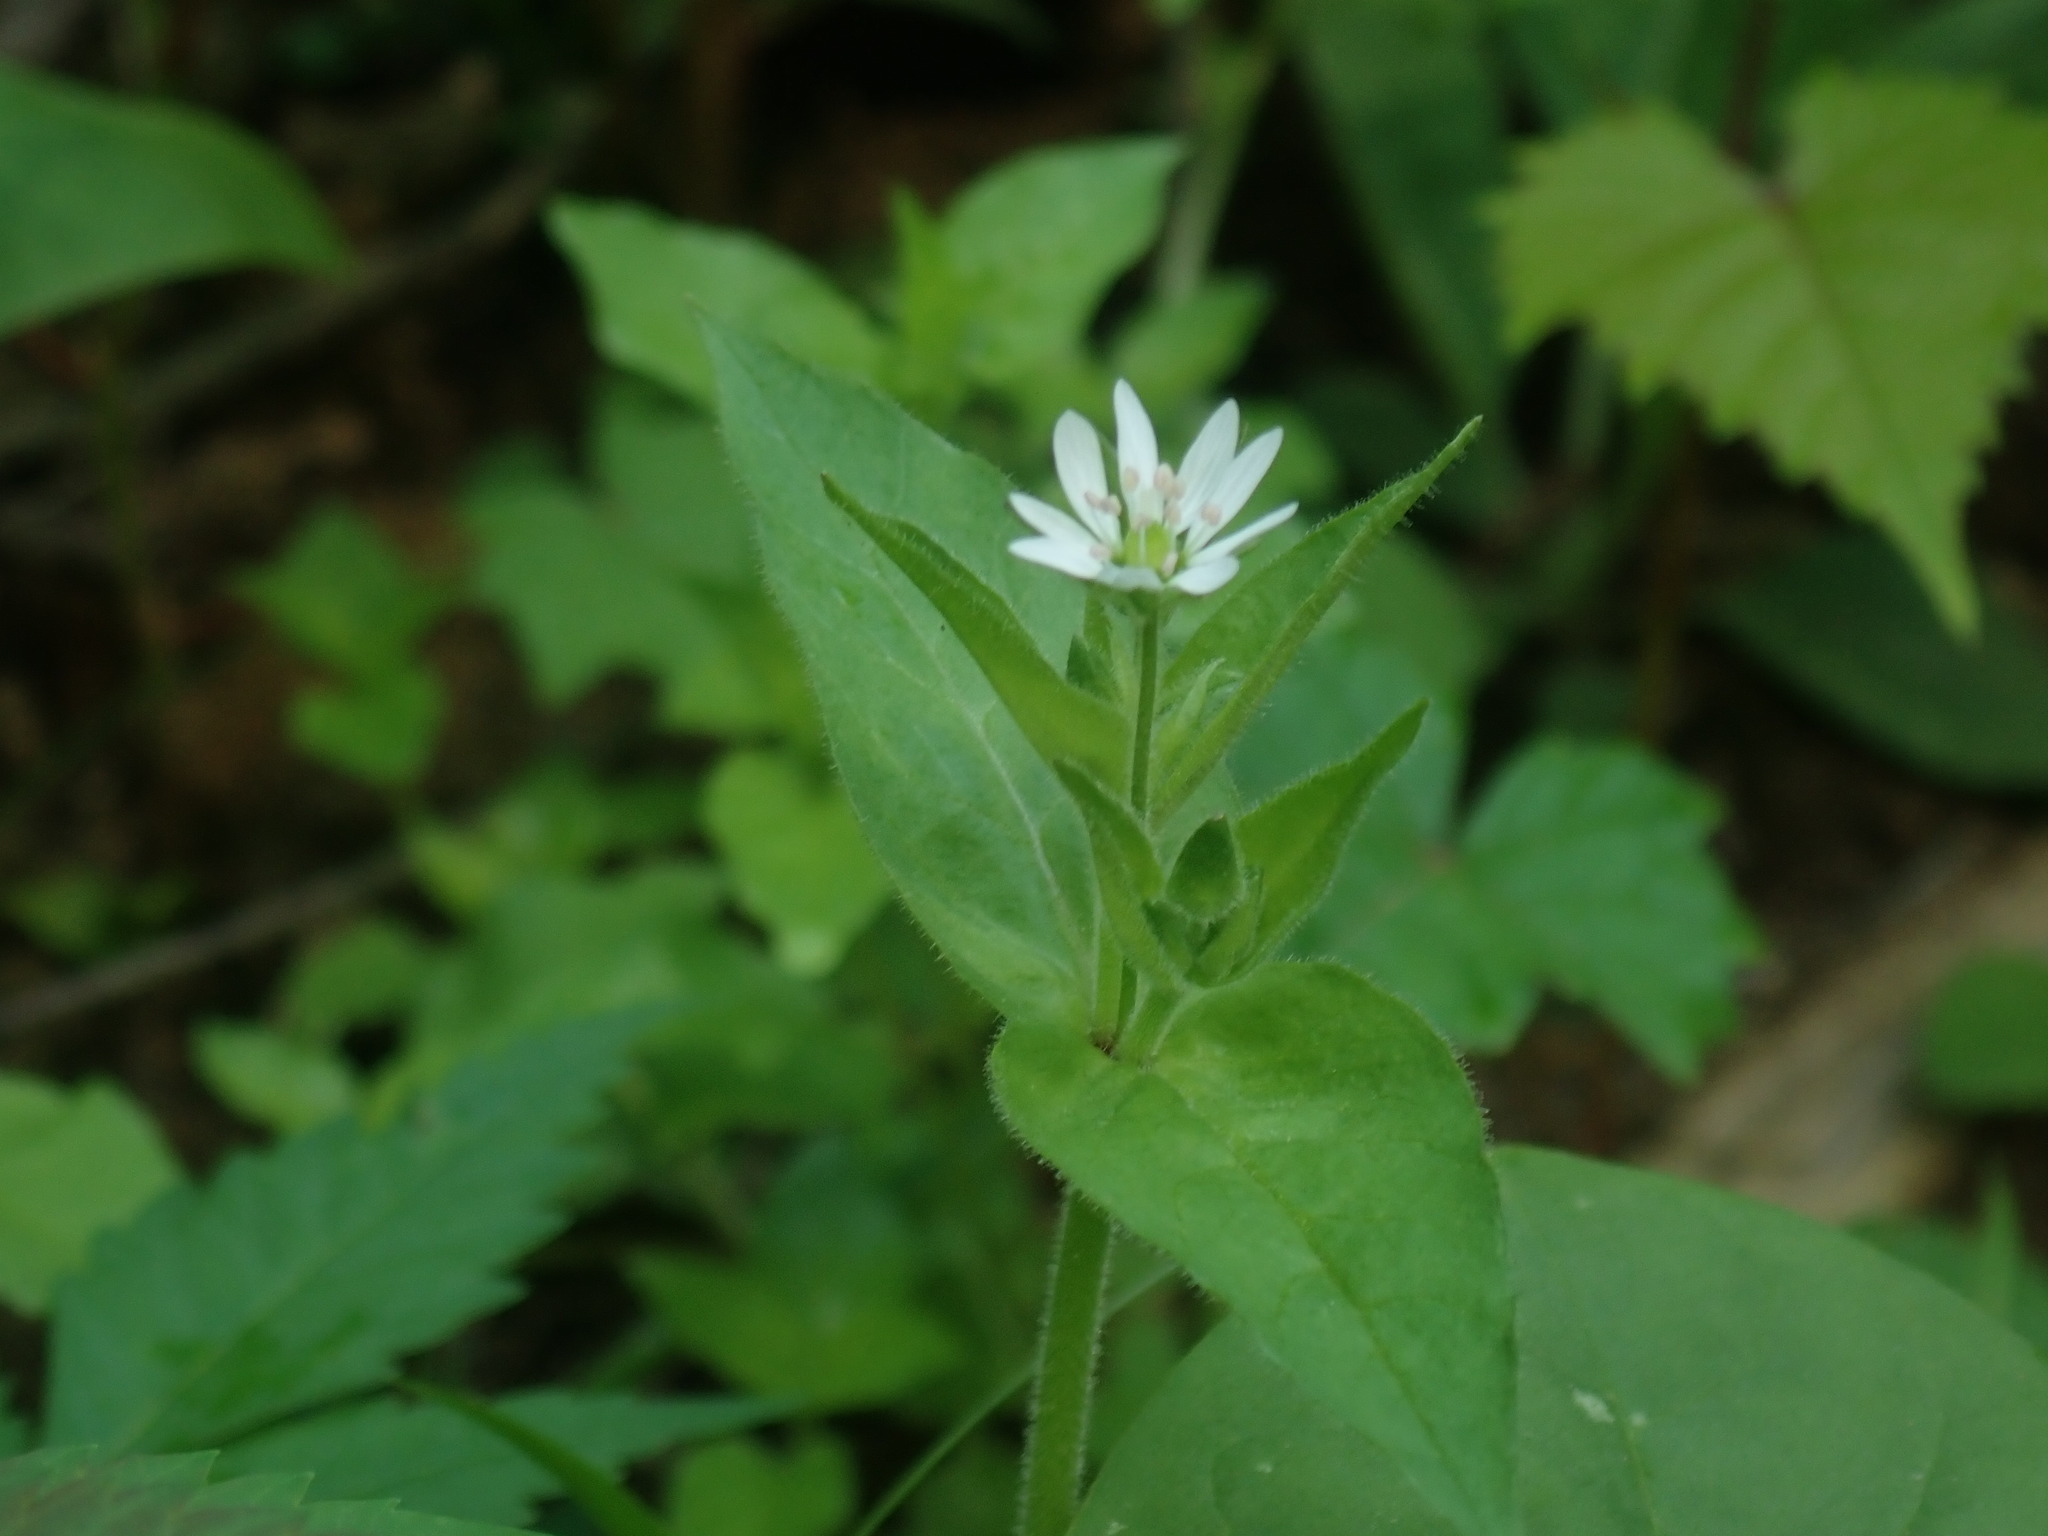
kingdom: Plantae
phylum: Tracheophyta
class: Magnoliopsida
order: Caryophyllales
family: Caryophyllaceae
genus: Stellaria
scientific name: Stellaria aquatica
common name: Water chickweed
